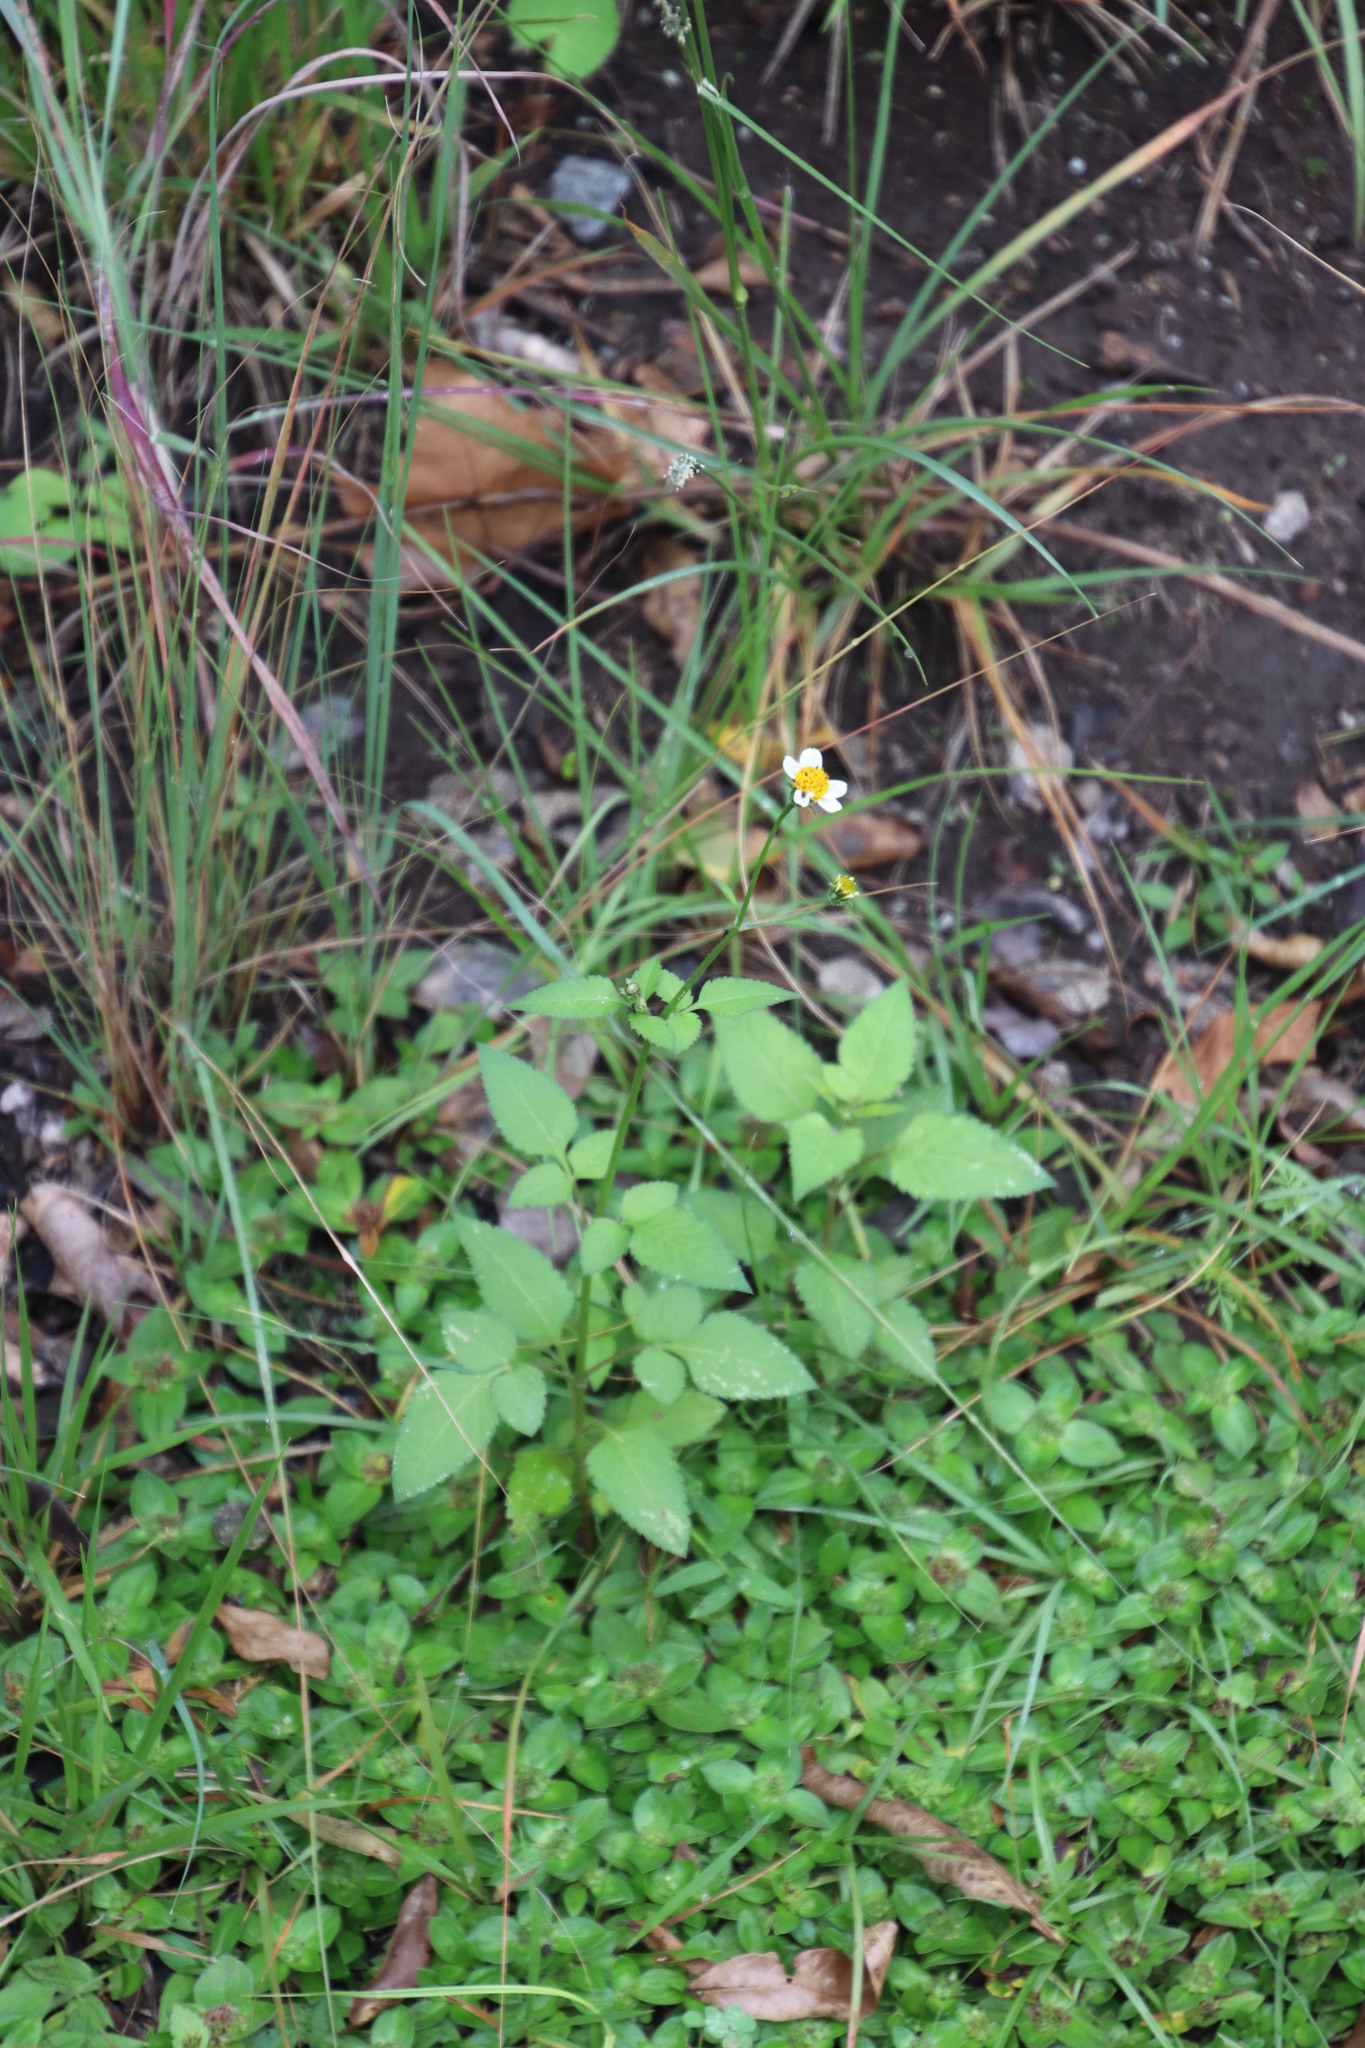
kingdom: Plantae
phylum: Tracheophyta
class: Magnoliopsida
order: Asterales
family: Asteraceae
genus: Bidens
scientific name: Bidens pilosa
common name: Black-jack
